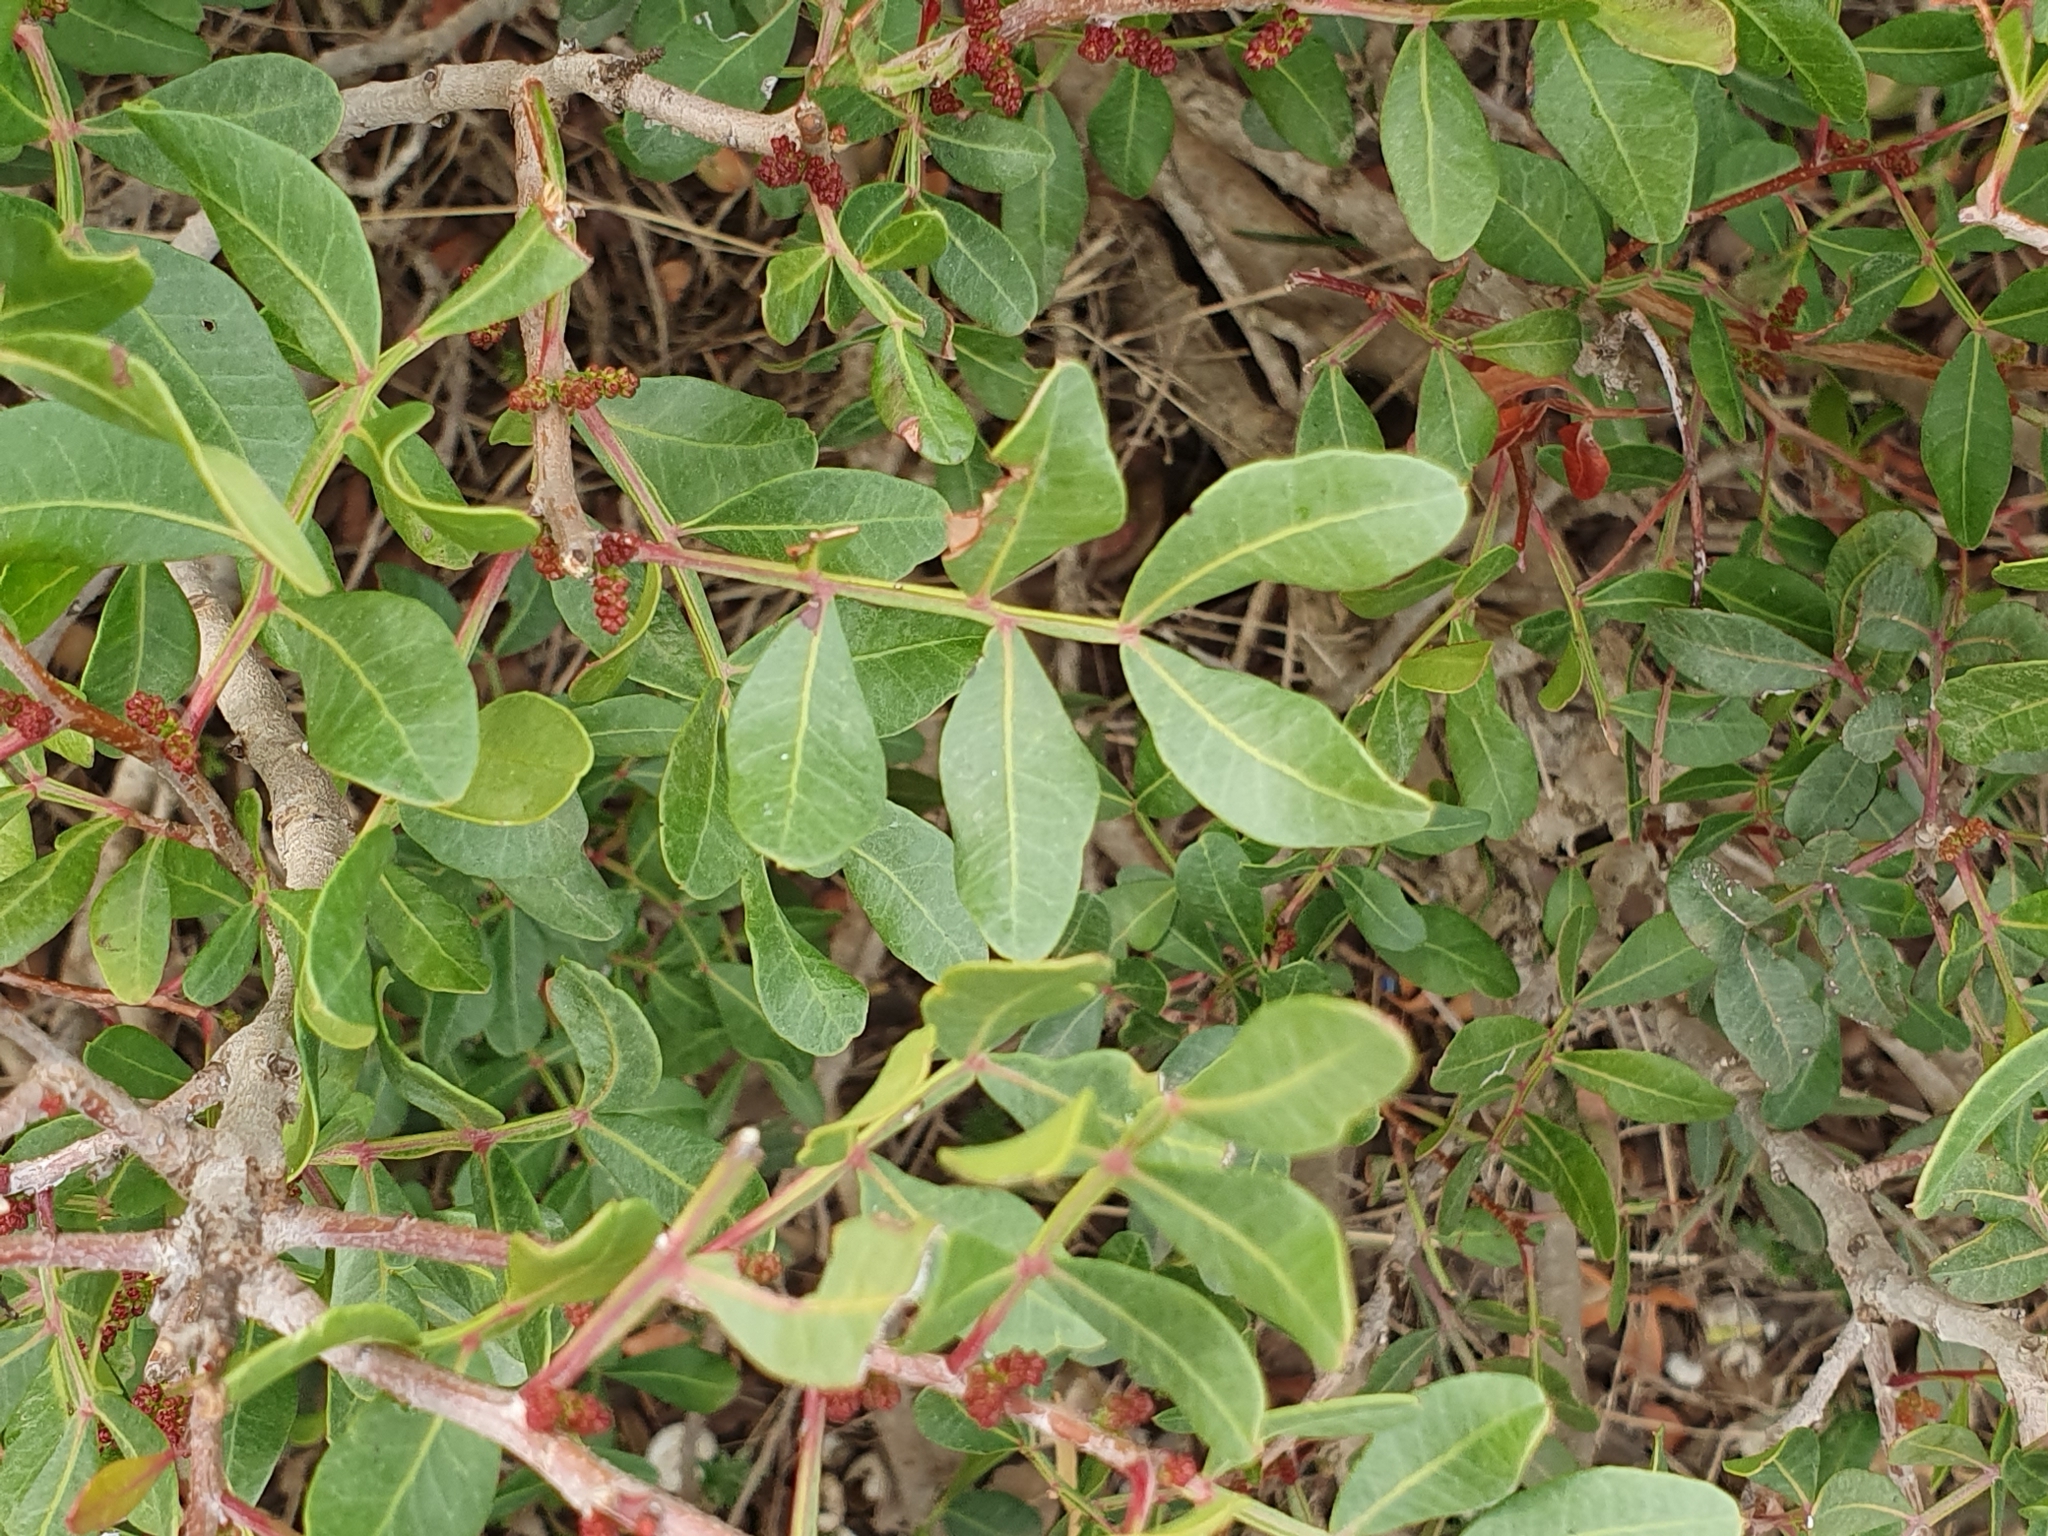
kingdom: Plantae
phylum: Tracheophyta
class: Magnoliopsida
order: Sapindales
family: Anacardiaceae
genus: Pistacia
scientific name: Pistacia lentiscus
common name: Lentisk
